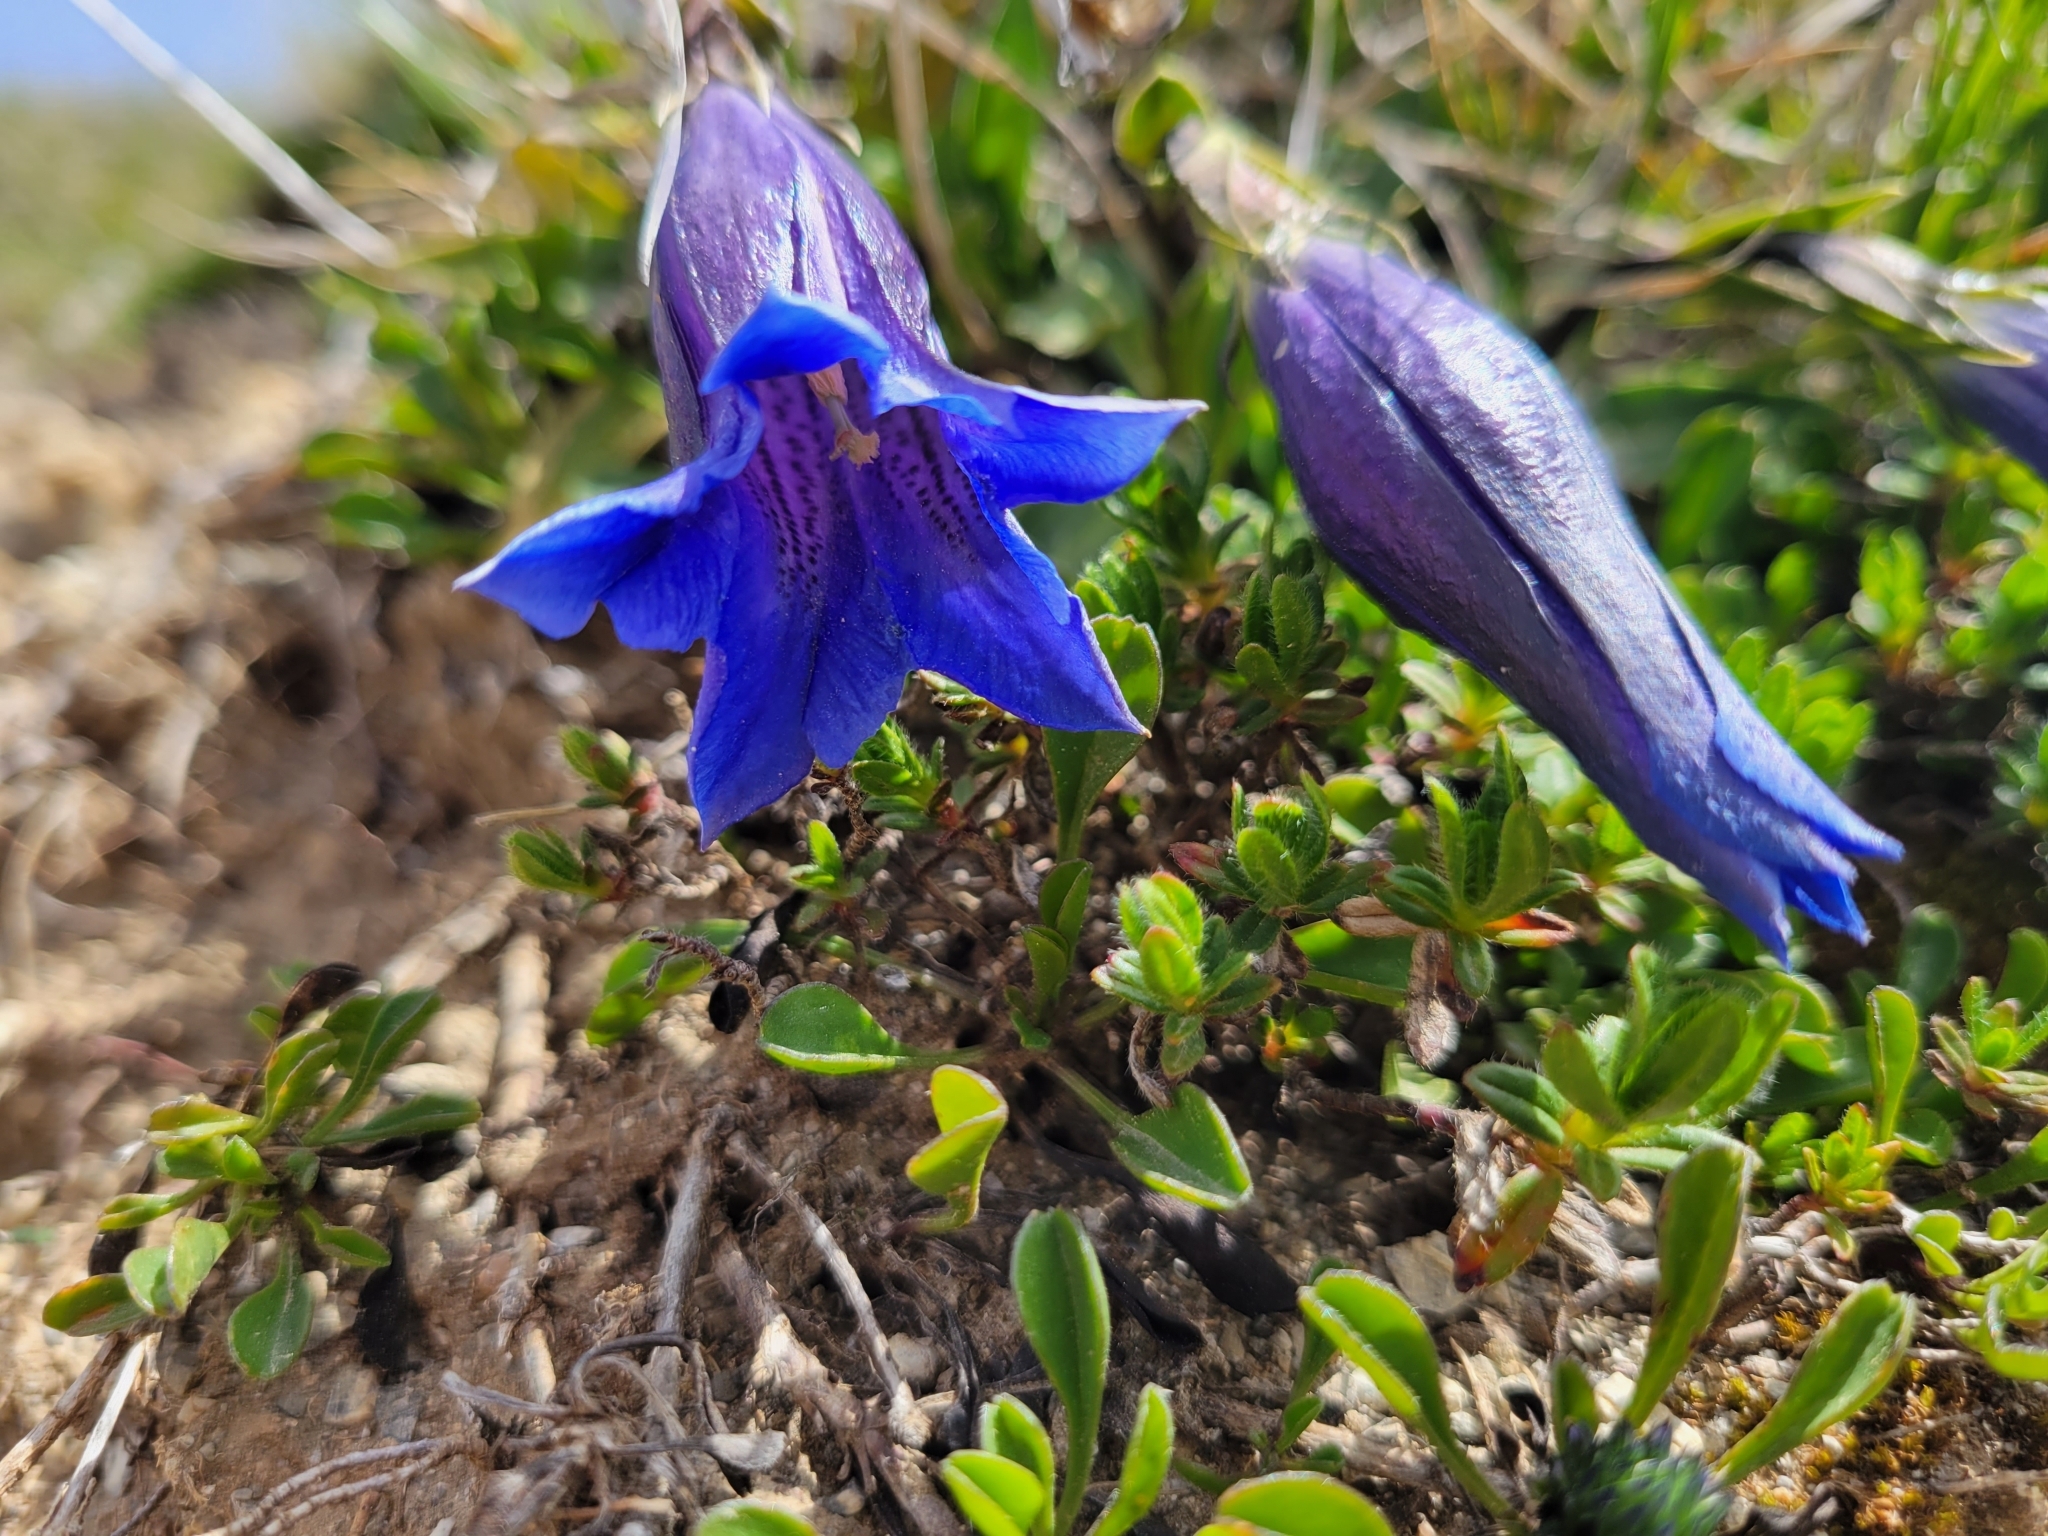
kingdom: Plantae
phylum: Tracheophyta
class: Magnoliopsida
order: Gentianales
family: Gentianaceae
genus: Gentiana
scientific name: Gentiana clusii
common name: Trumpet gentian
